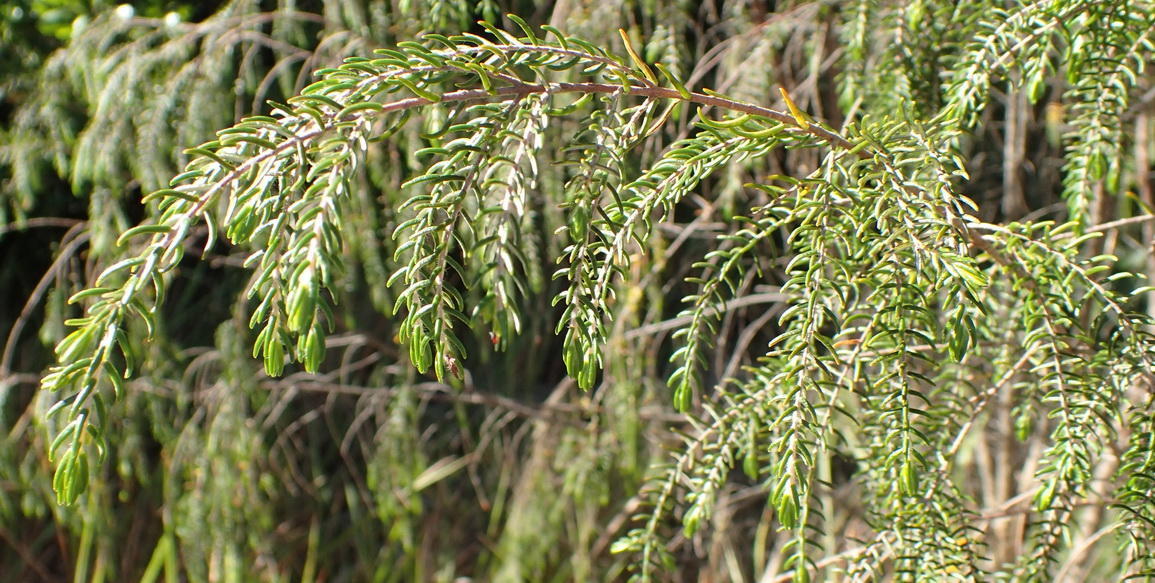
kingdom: Plantae
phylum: Tracheophyta
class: Magnoliopsida
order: Malvales
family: Thymelaeaceae
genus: Passerina
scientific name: Passerina falcifolia
